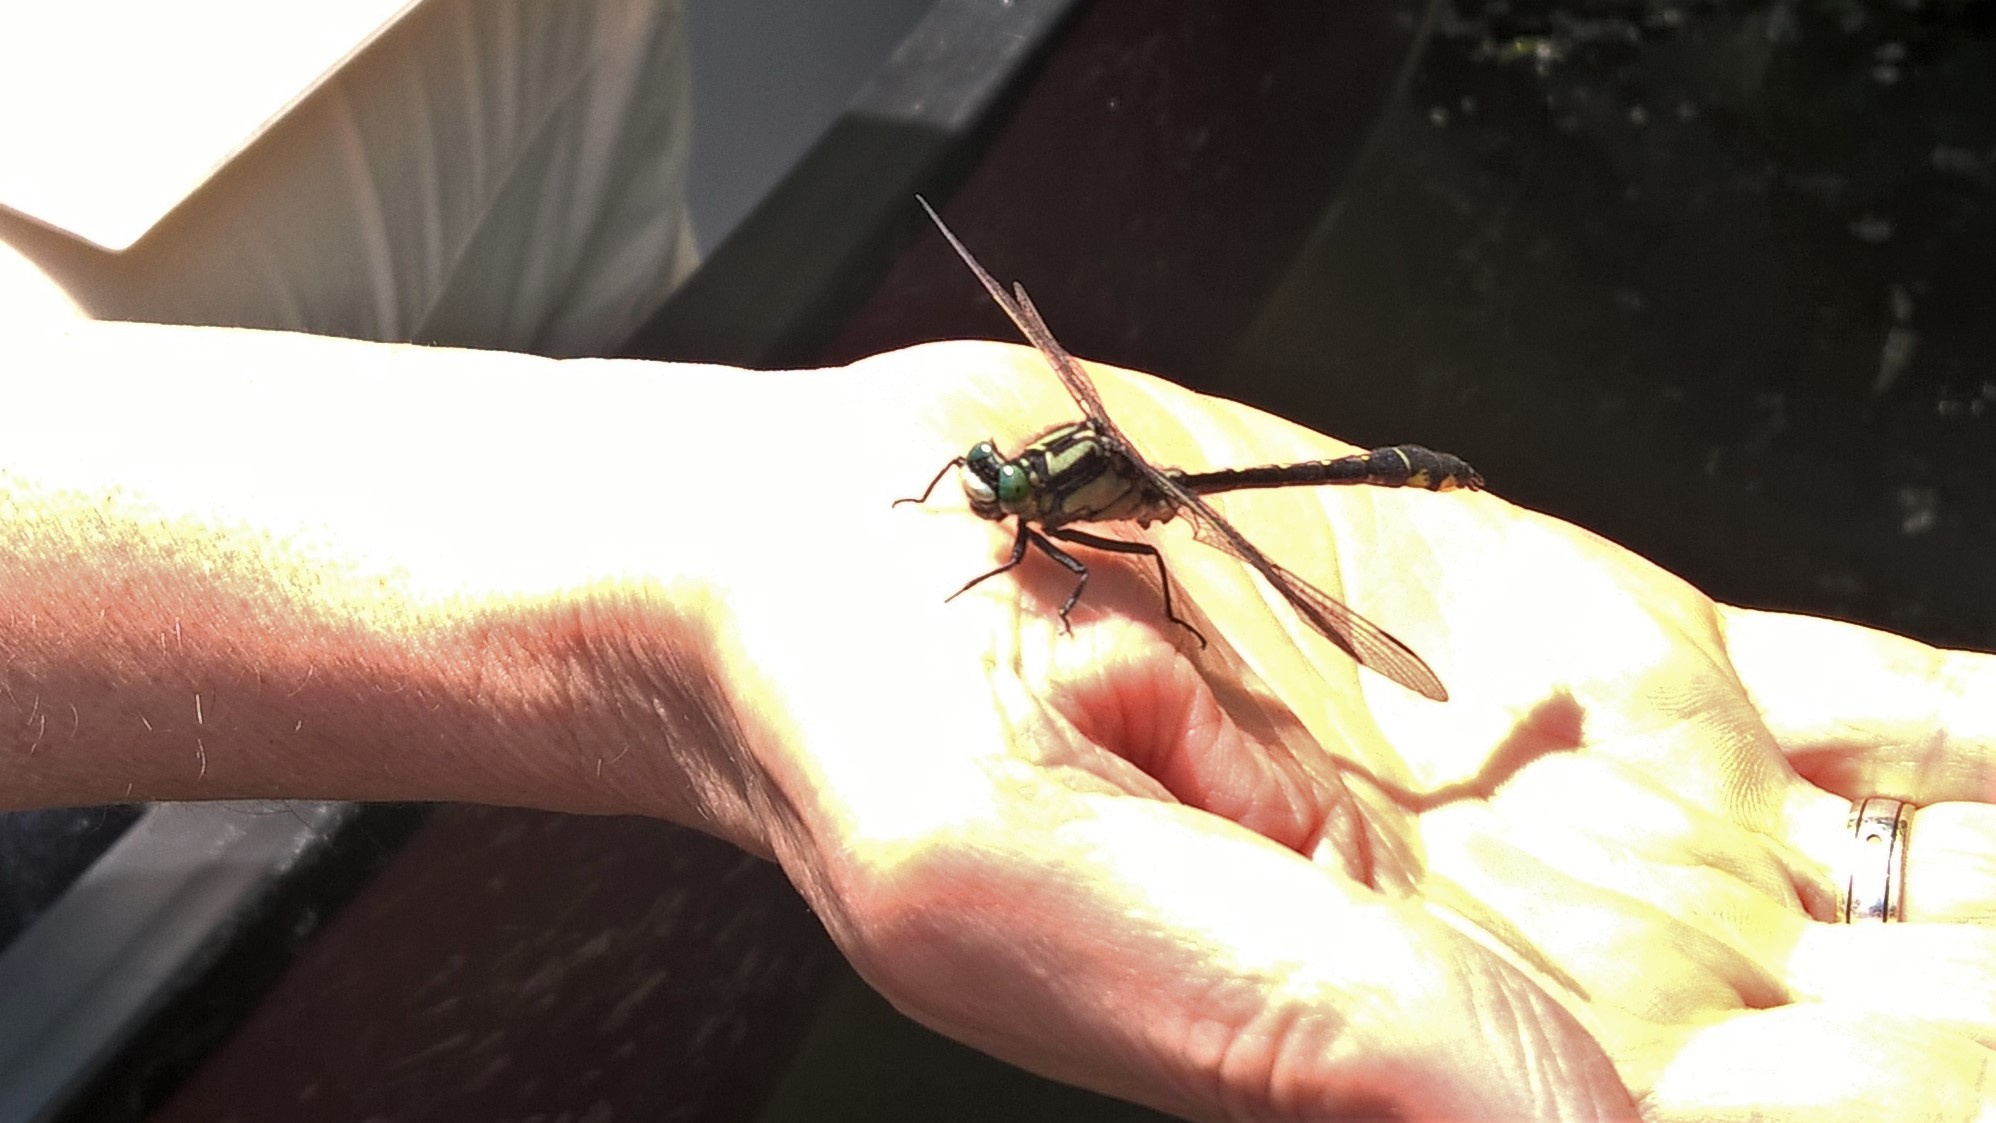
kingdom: Animalia
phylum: Arthropoda
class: Insecta
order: Odonata
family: Gomphidae
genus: Gomphus
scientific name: Gomphus vulgatissimus
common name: Club-tailed dragonfly
